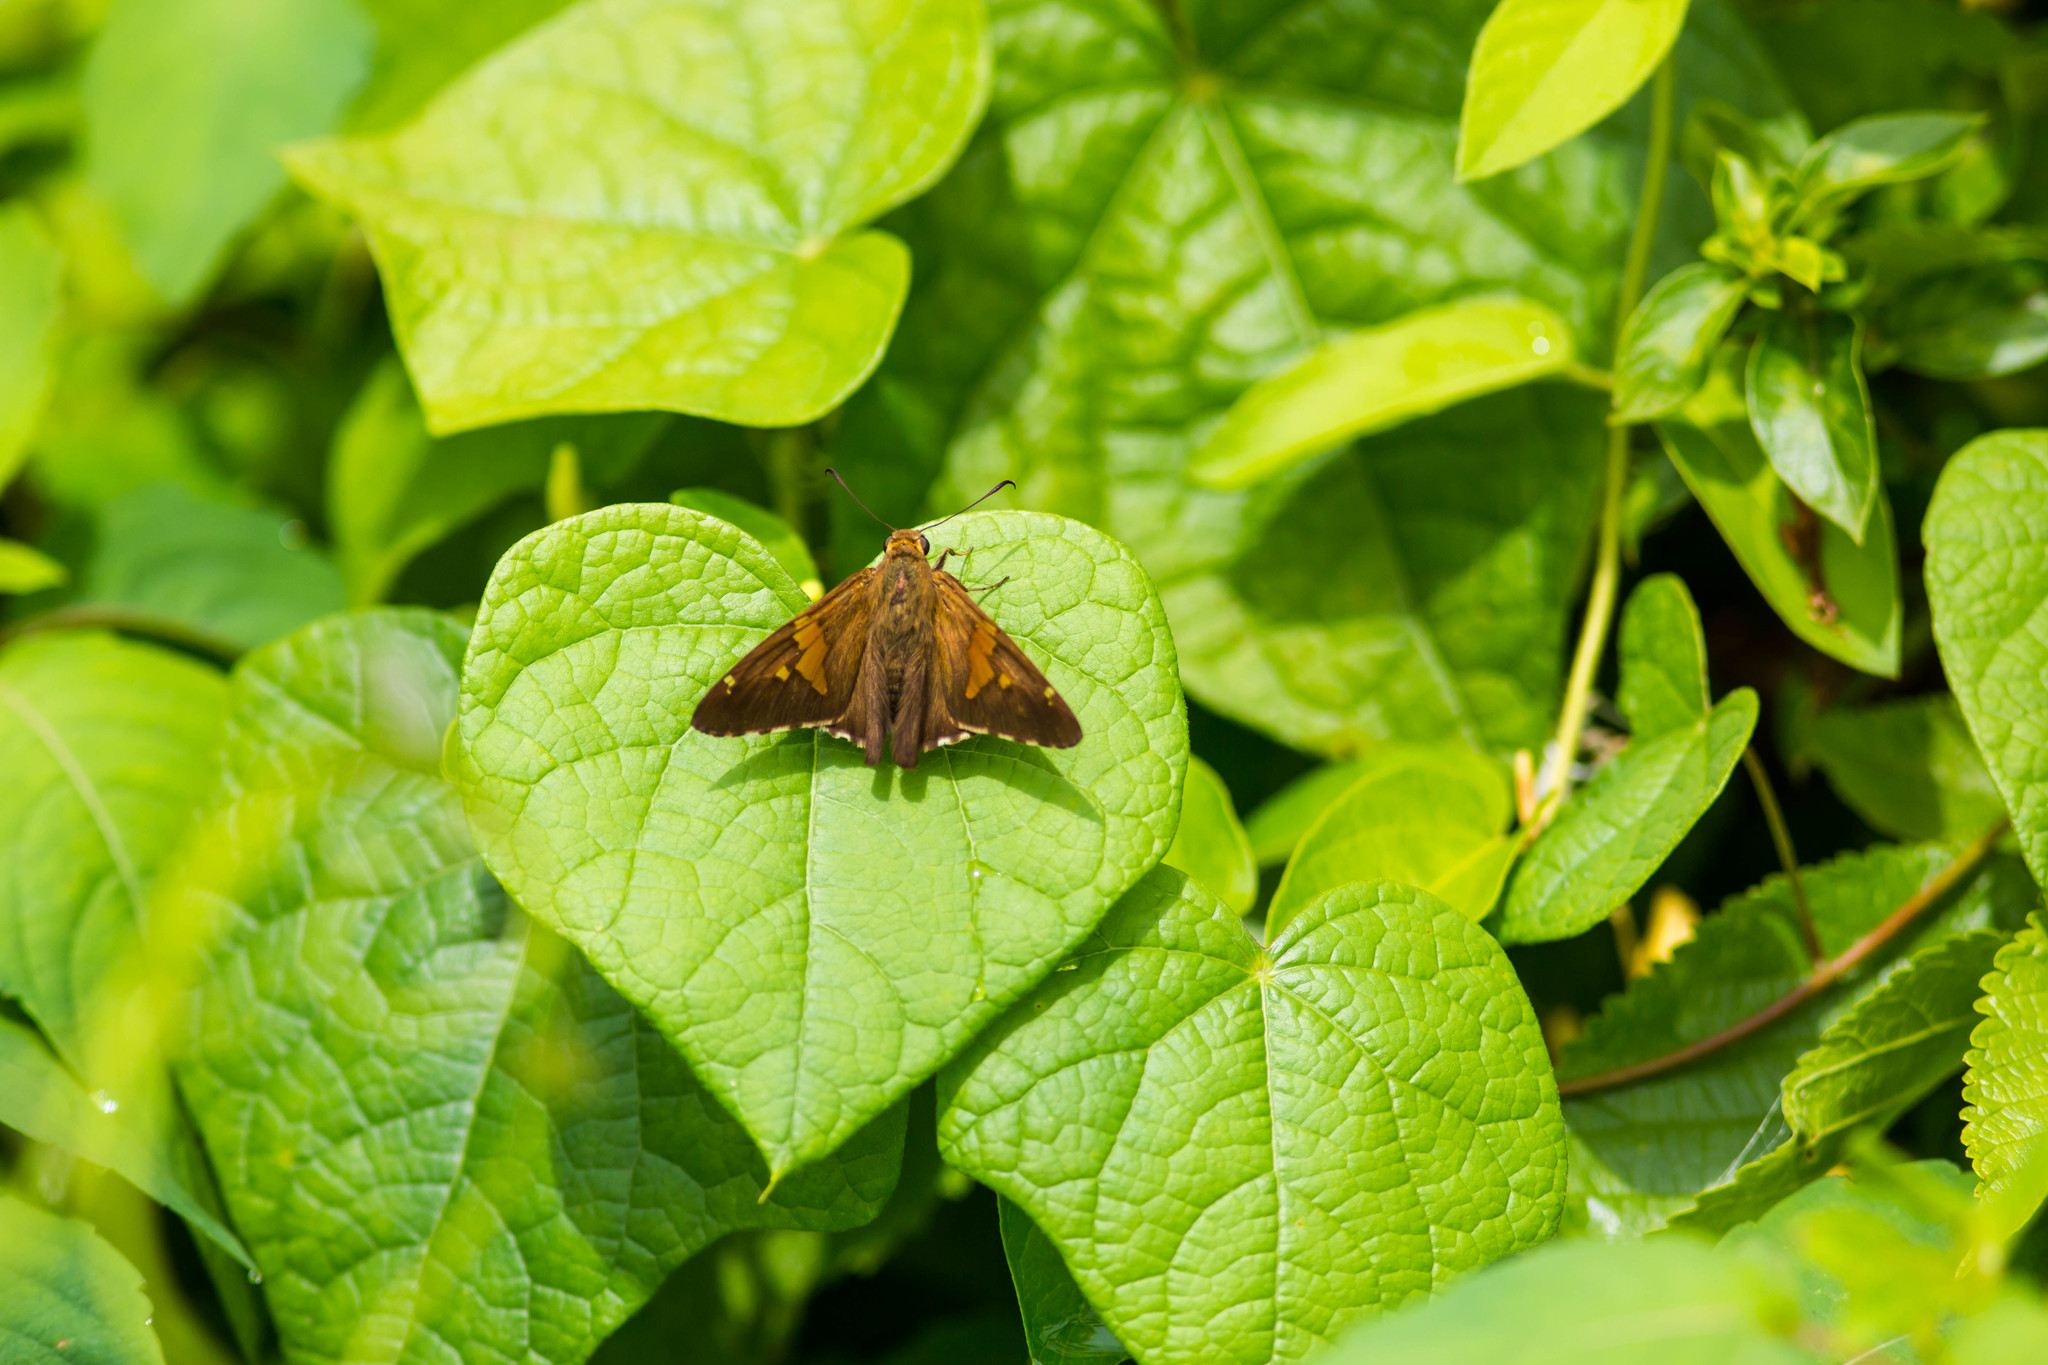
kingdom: Animalia
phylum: Arthropoda
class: Insecta
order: Lepidoptera
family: Hesperiidae
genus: Epargyreus
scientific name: Epargyreus clarus
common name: Silver-spotted skipper
